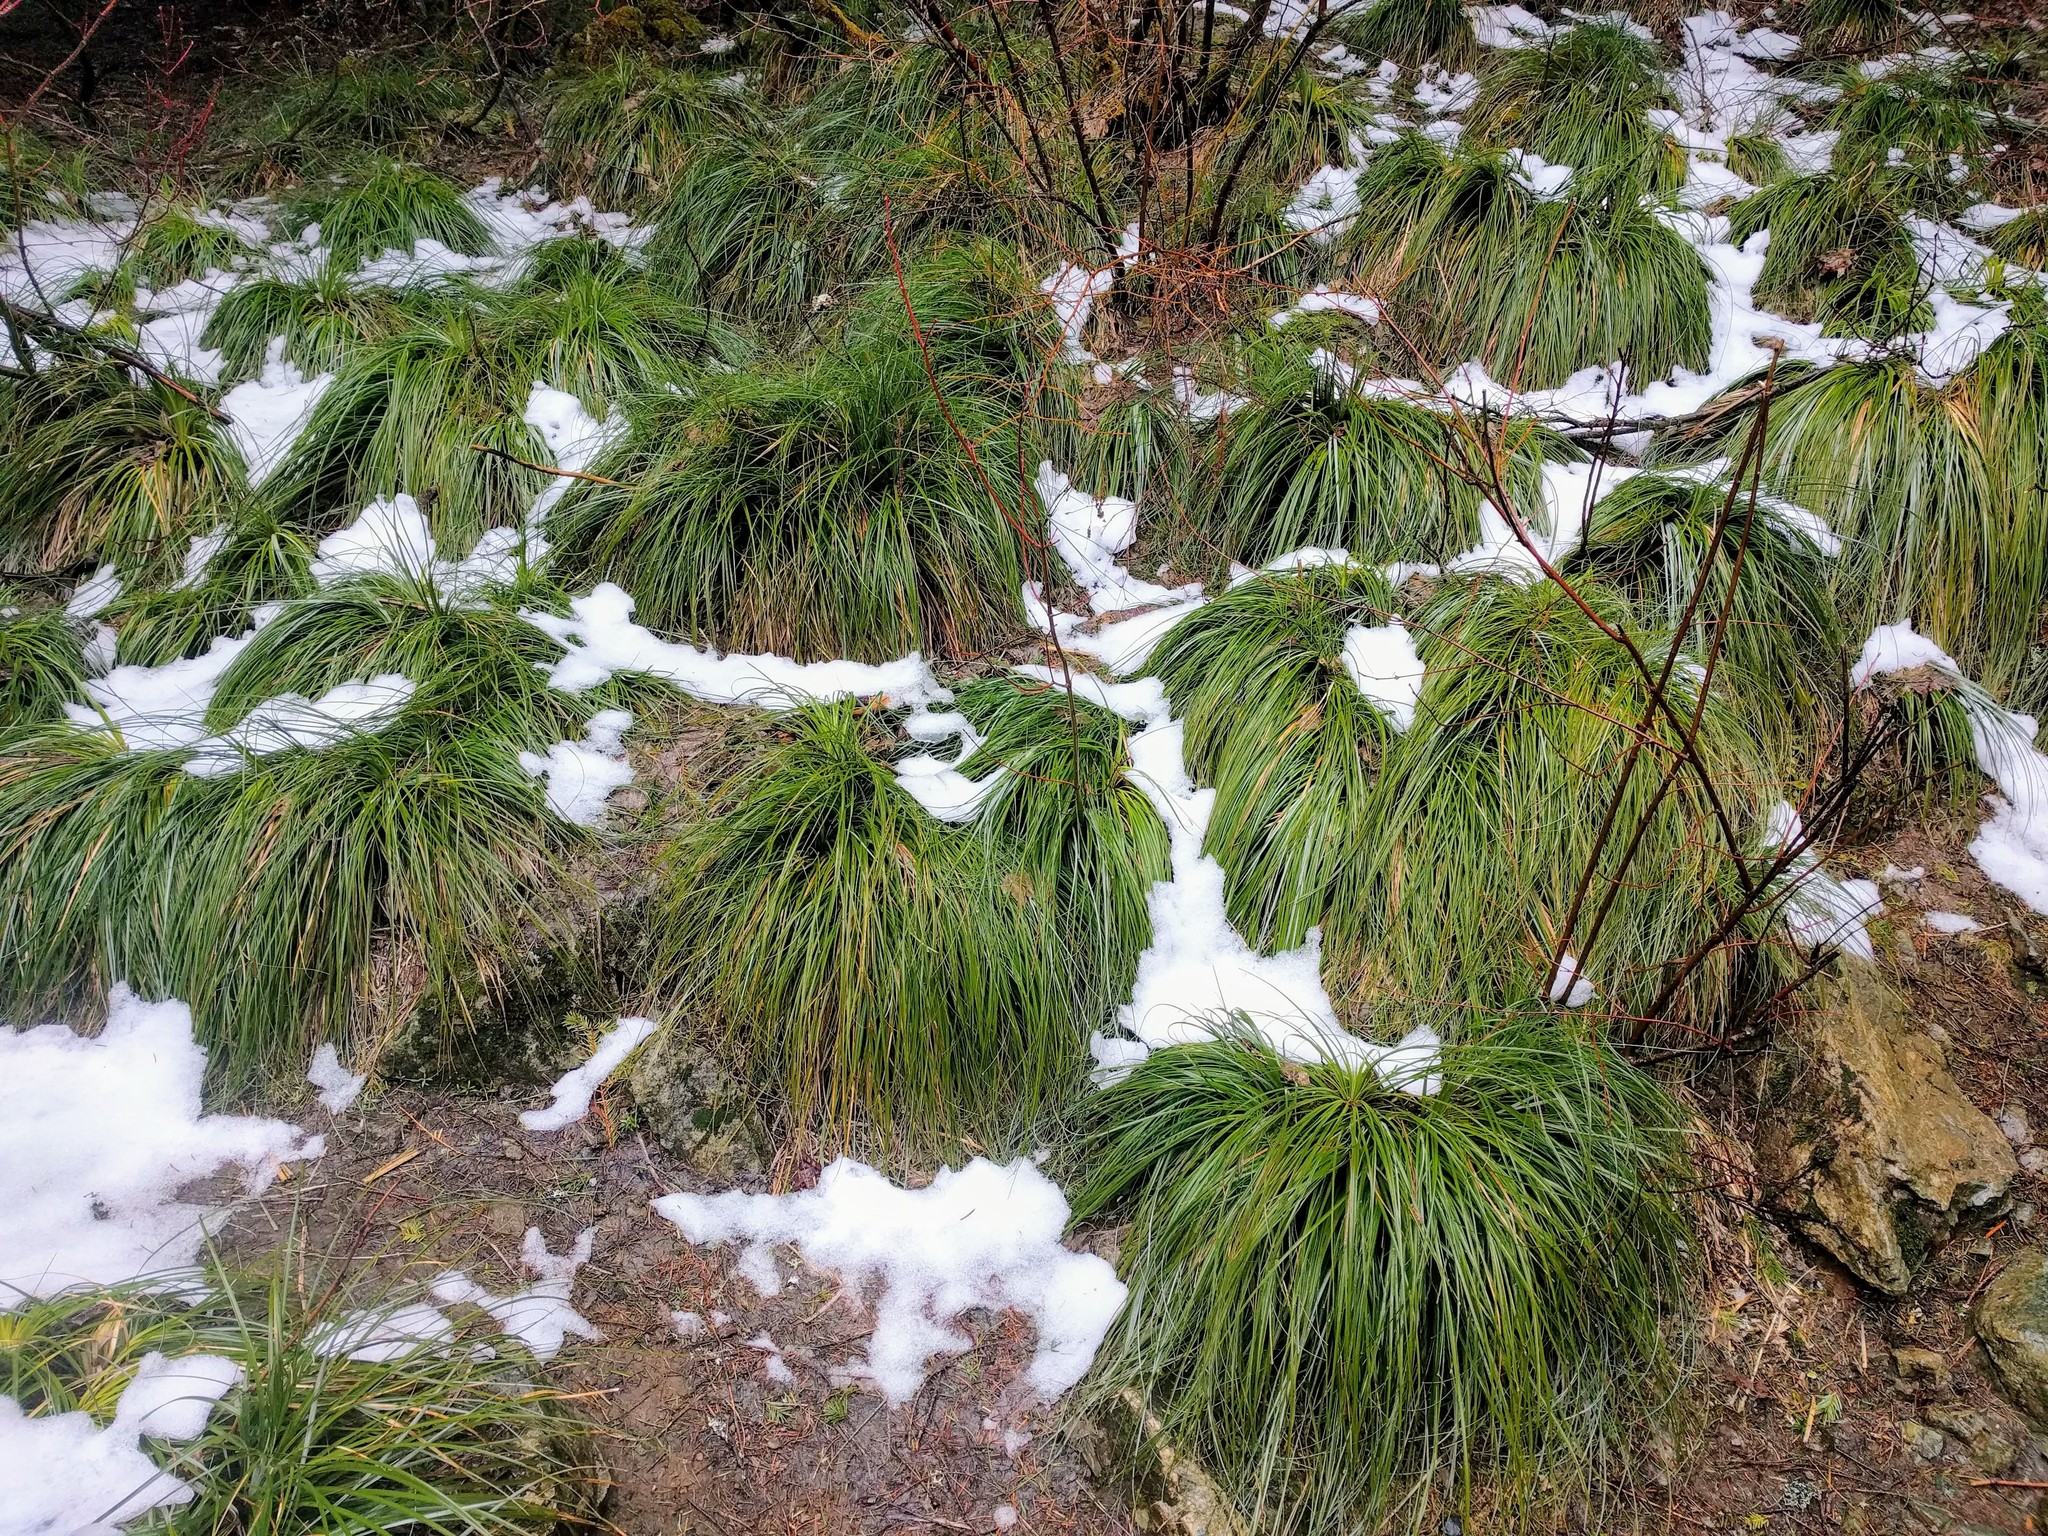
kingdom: Plantae
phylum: Tracheophyta
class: Liliopsida
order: Liliales
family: Melanthiaceae
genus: Xerophyllum
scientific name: Xerophyllum tenax
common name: Bear-grass
